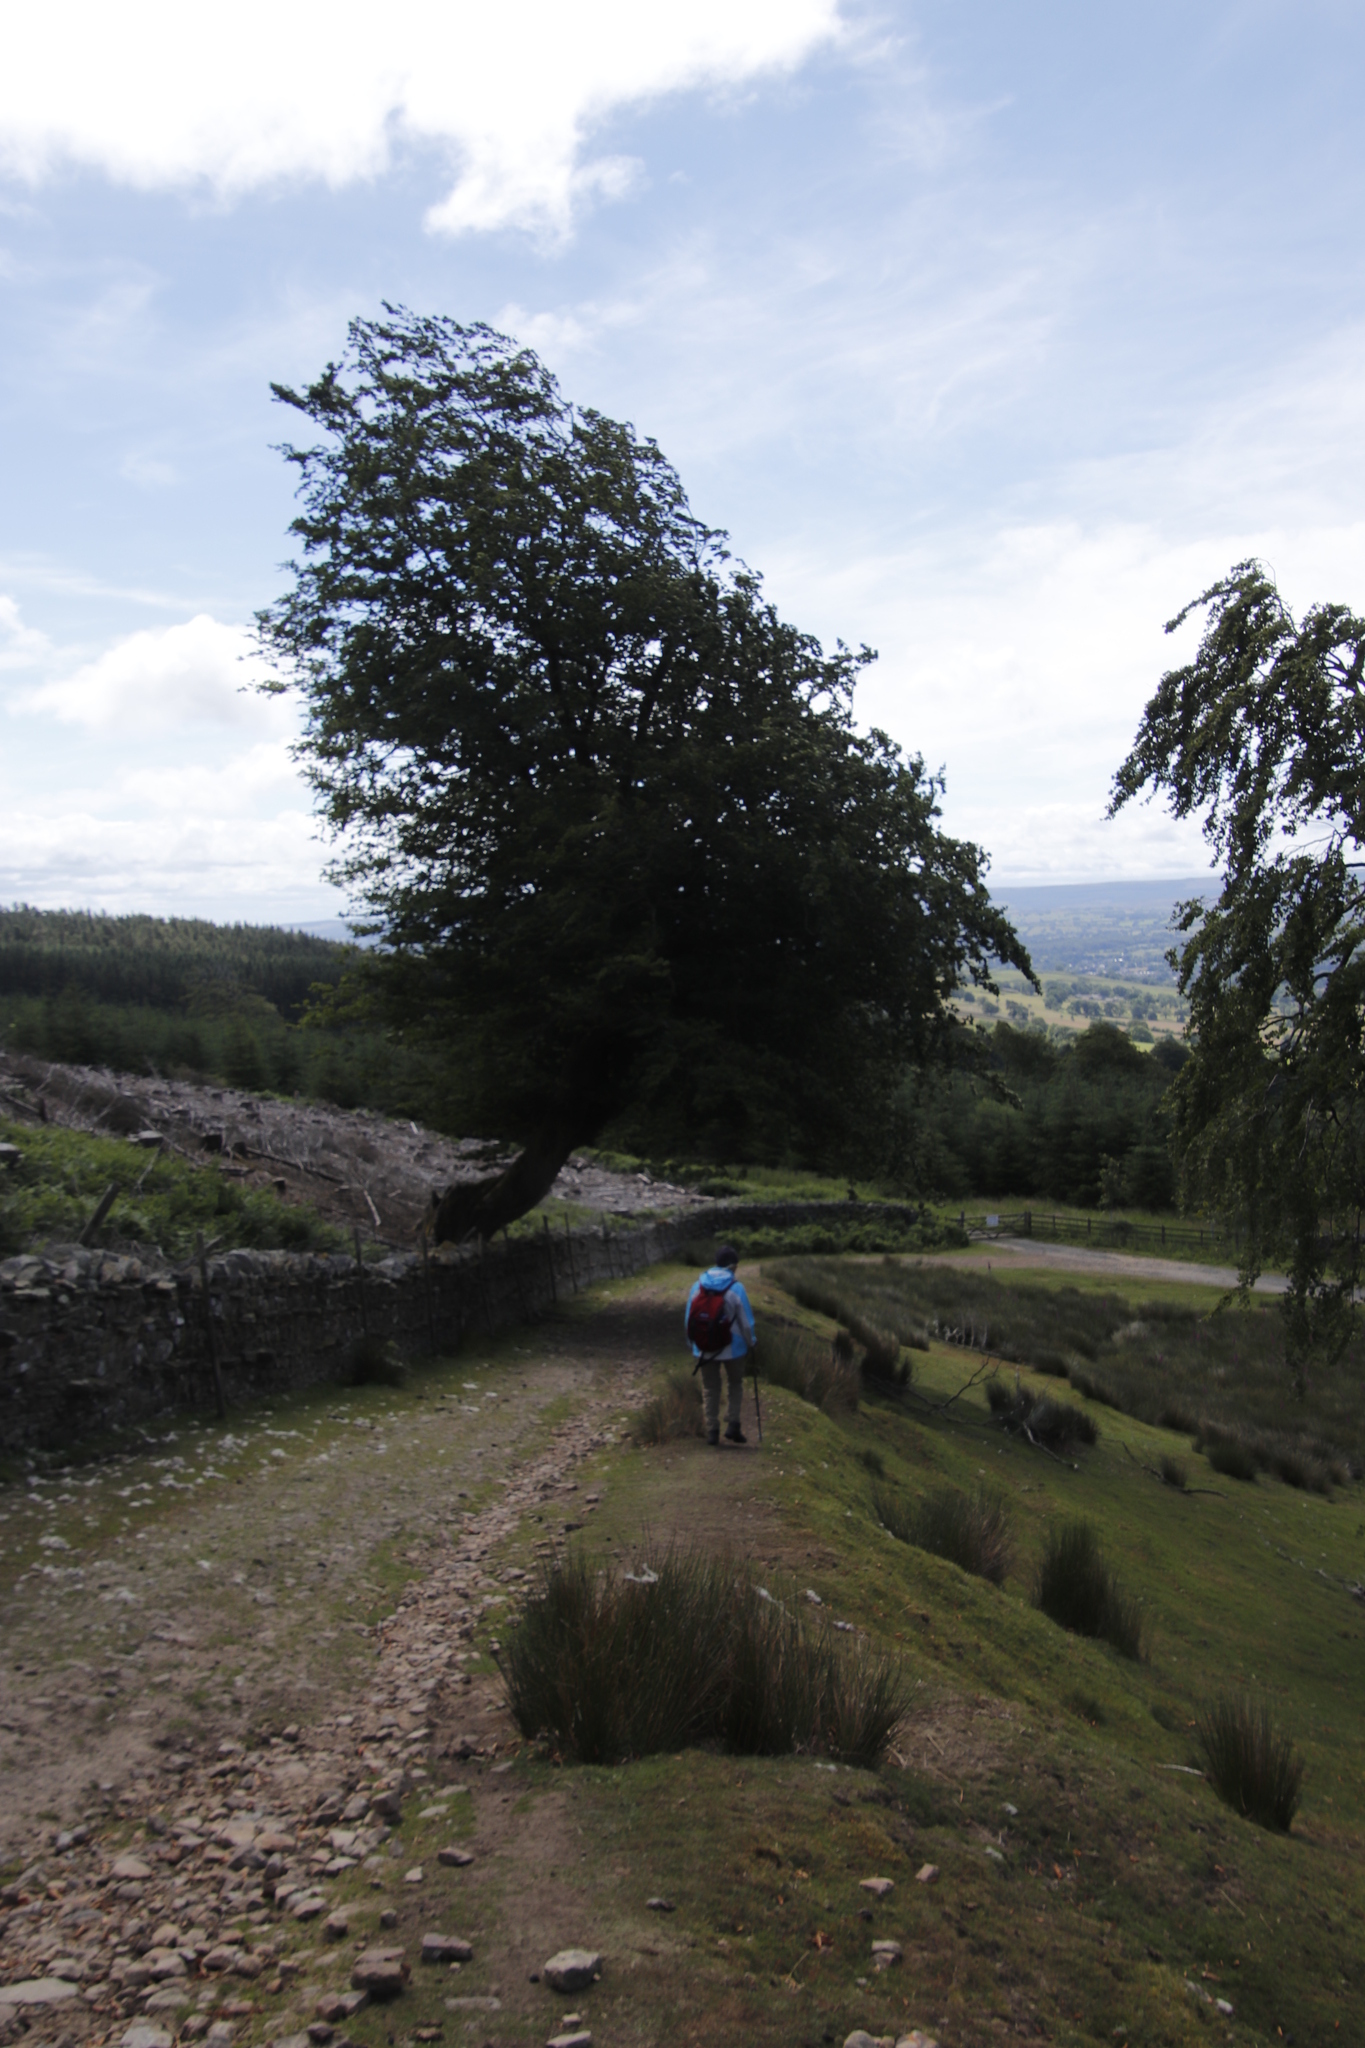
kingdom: Plantae
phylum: Tracheophyta
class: Magnoliopsida
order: Fagales
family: Fagaceae
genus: Fagus
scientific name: Fagus sylvatica
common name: Beech
